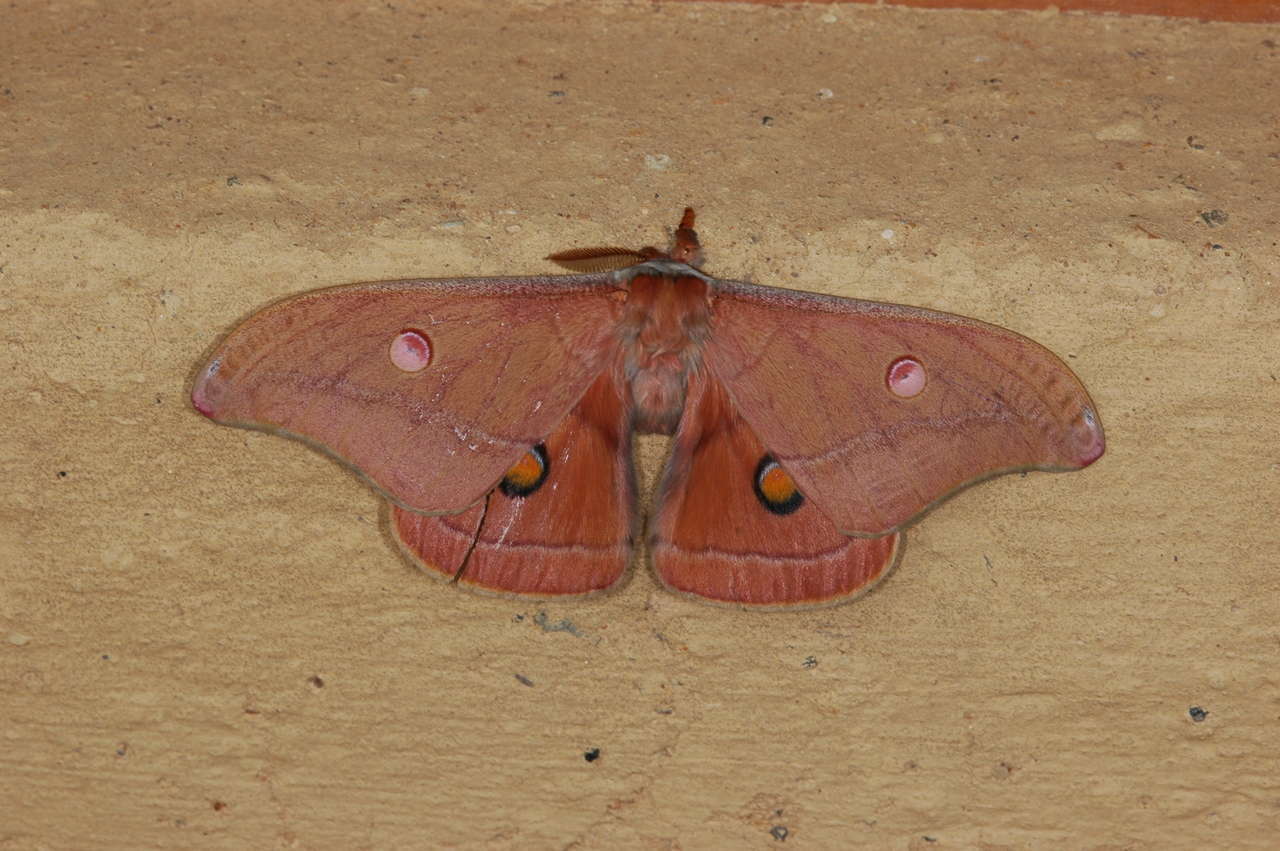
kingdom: Animalia
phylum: Arthropoda
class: Insecta
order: Lepidoptera
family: Saturniidae
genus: Opodiphthera
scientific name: Opodiphthera
